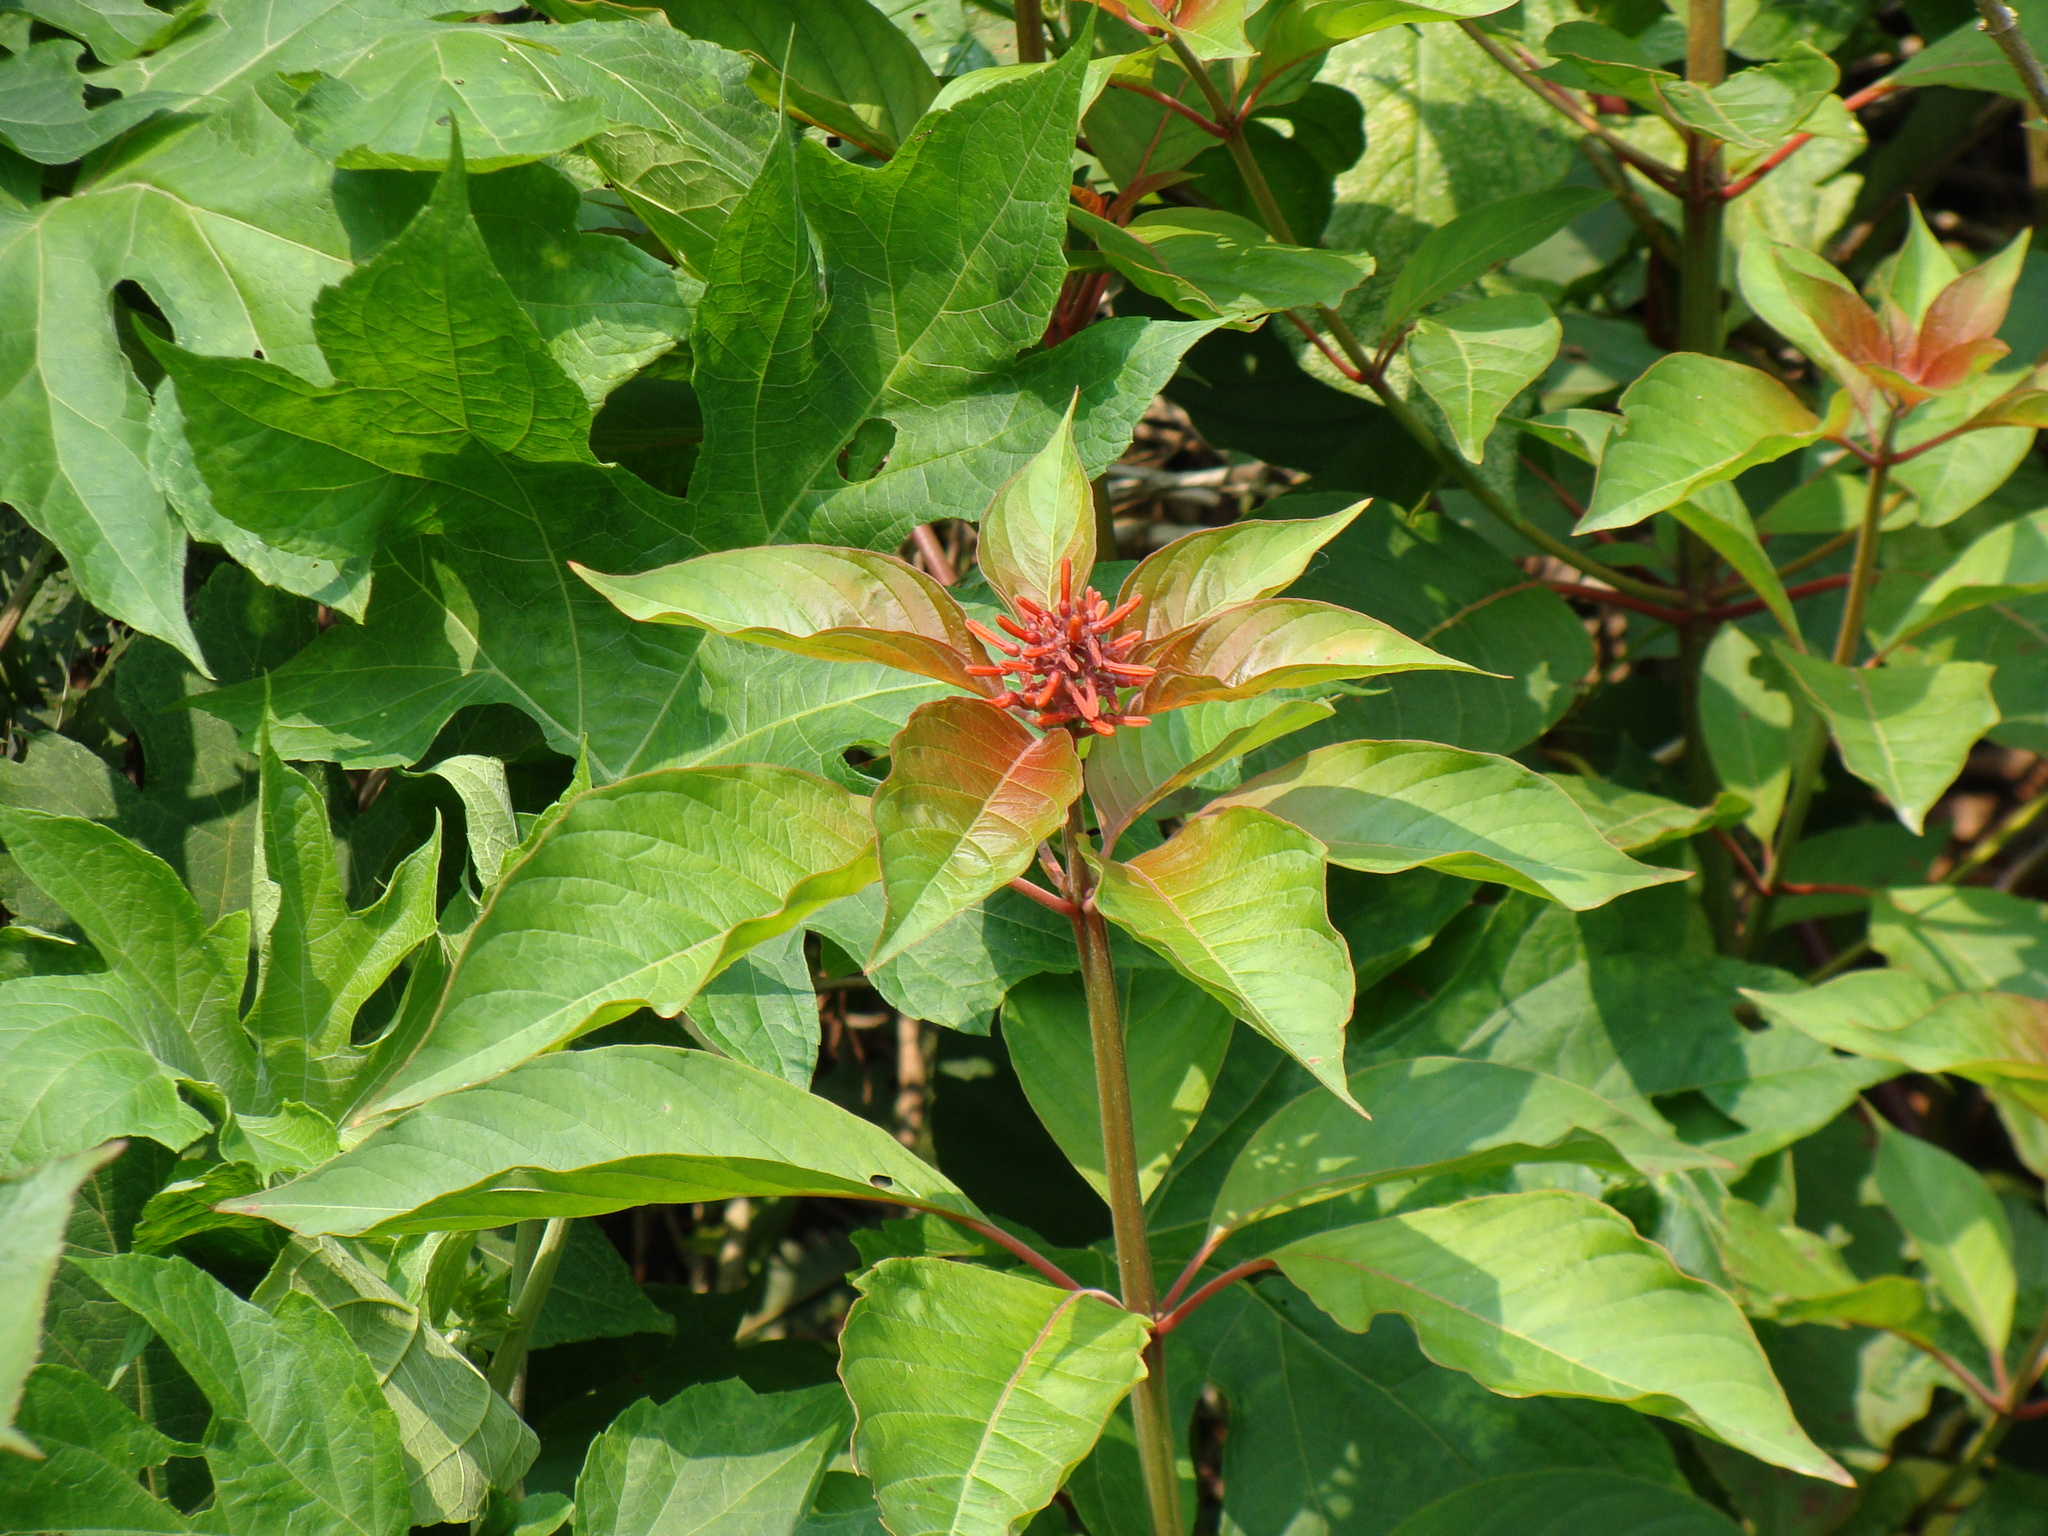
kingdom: Plantae
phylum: Tracheophyta
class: Magnoliopsida
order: Gentianales
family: Rubiaceae
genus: Hamelia
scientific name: Hamelia patens
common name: Redhead
